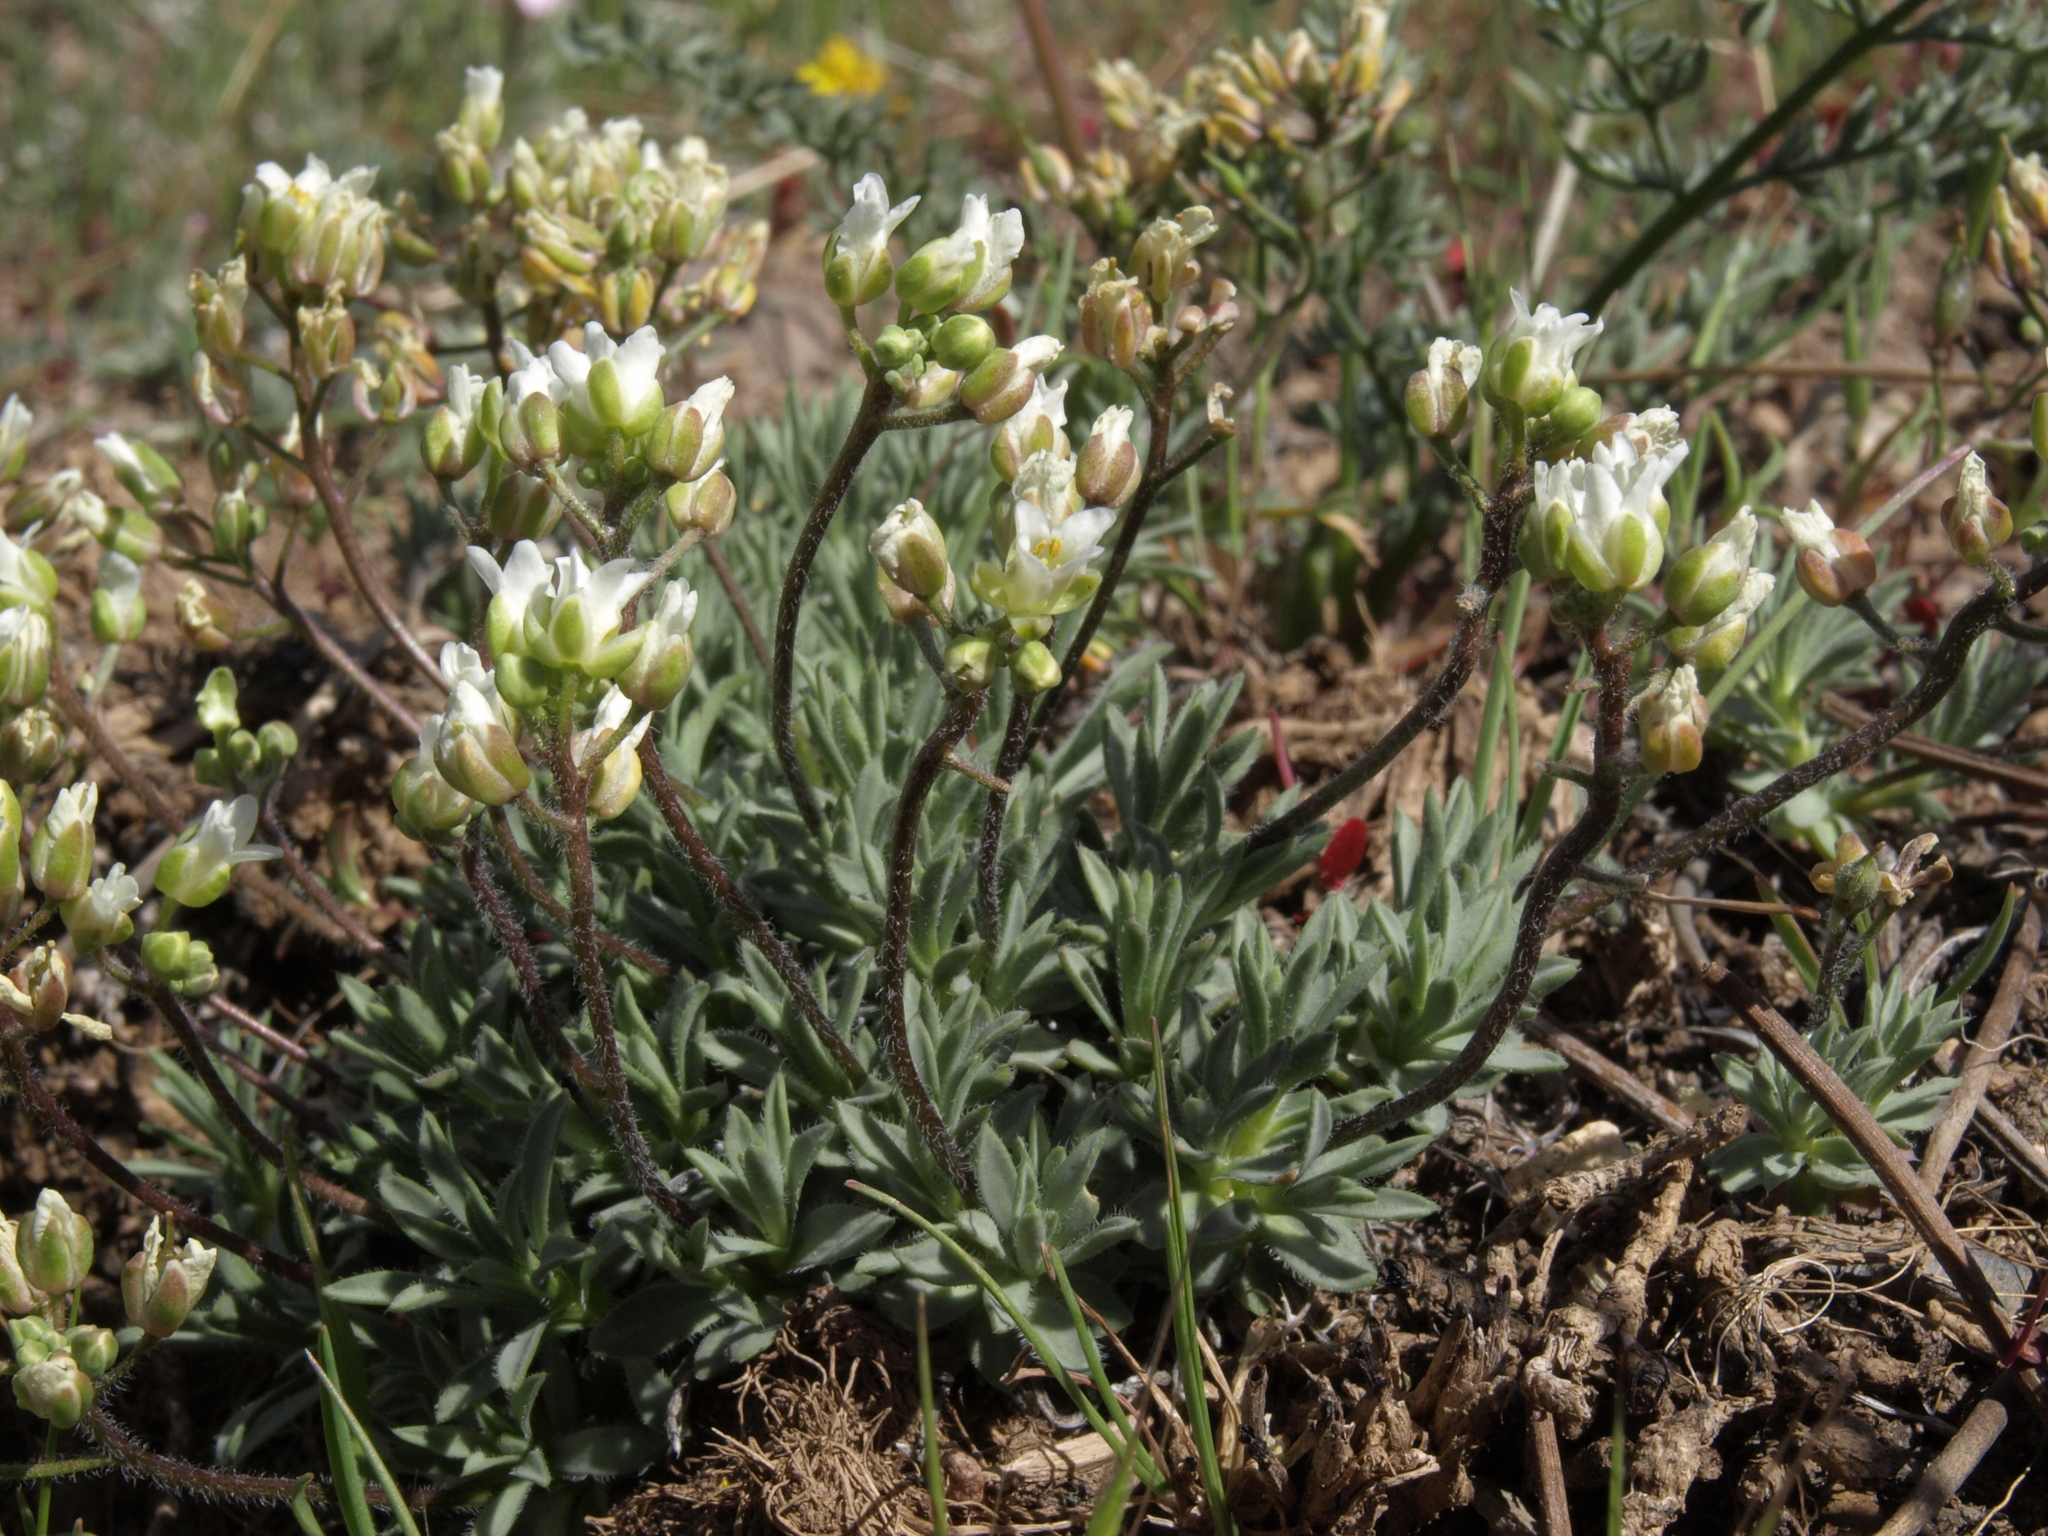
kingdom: Plantae
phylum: Tracheophyta
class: Magnoliopsida
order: Brassicales
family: Brassicaceae
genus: Cusickiella
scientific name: Cusickiella douglasii
